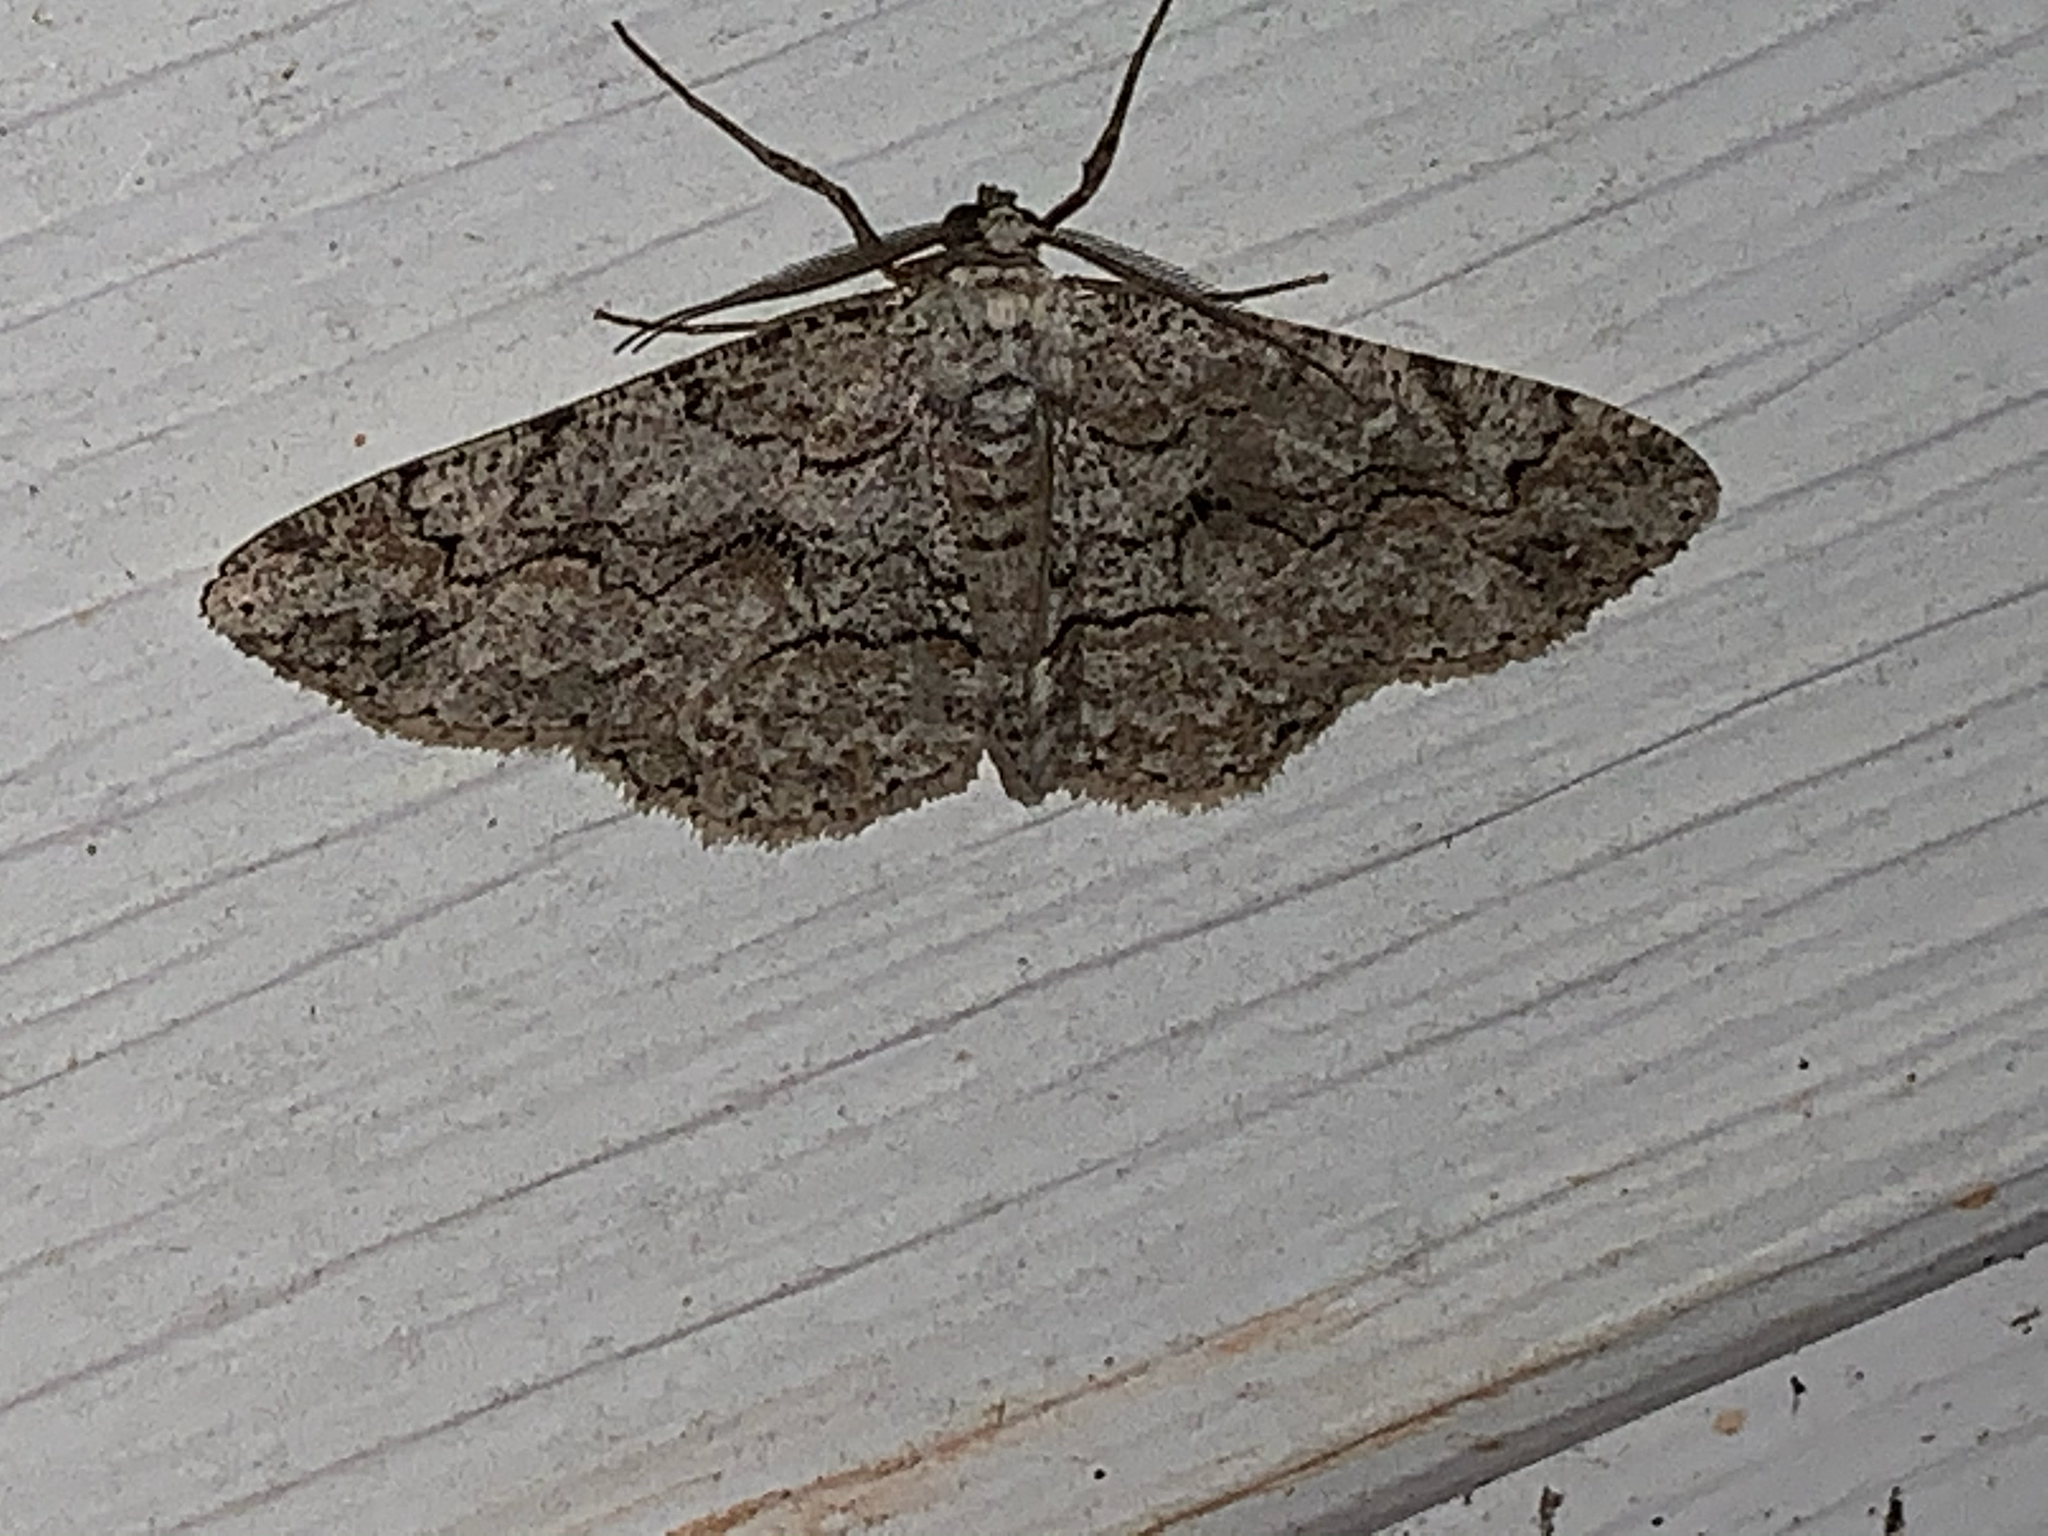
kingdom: Animalia
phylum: Arthropoda
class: Insecta
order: Lepidoptera
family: Geometridae
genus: Iridopsis
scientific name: Iridopsis defectaria
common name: Brown-shaded gray
